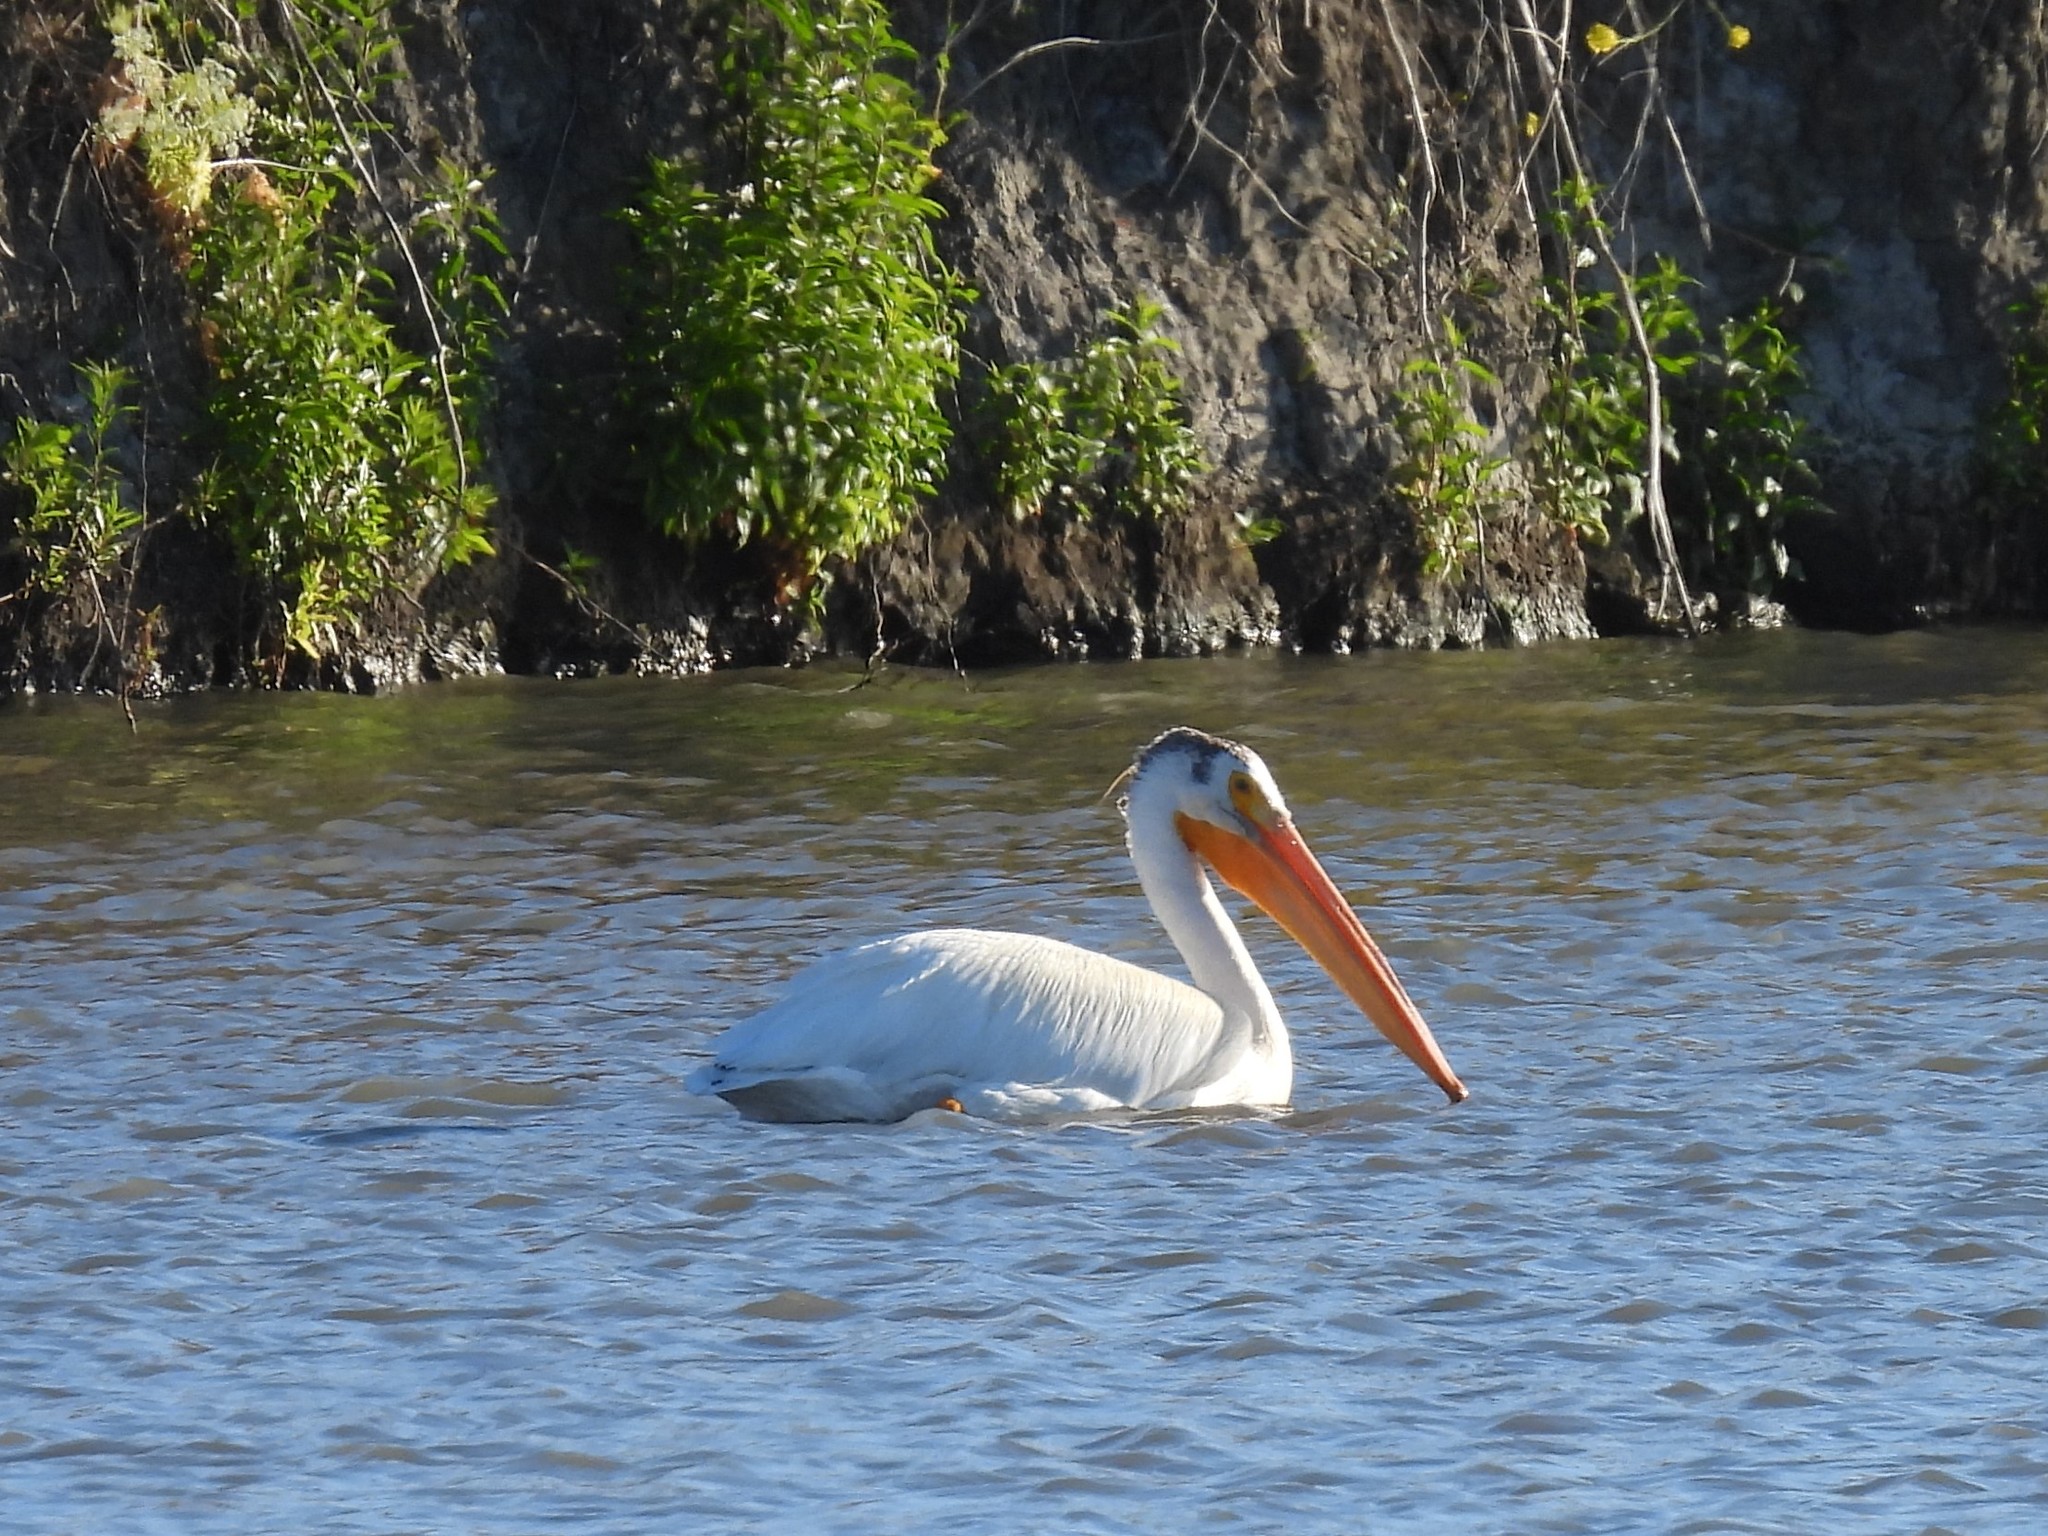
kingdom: Animalia
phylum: Chordata
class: Aves
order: Pelecaniformes
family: Pelecanidae
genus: Pelecanus
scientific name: Pelecanus erythrorhynchos
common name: American white pelican
